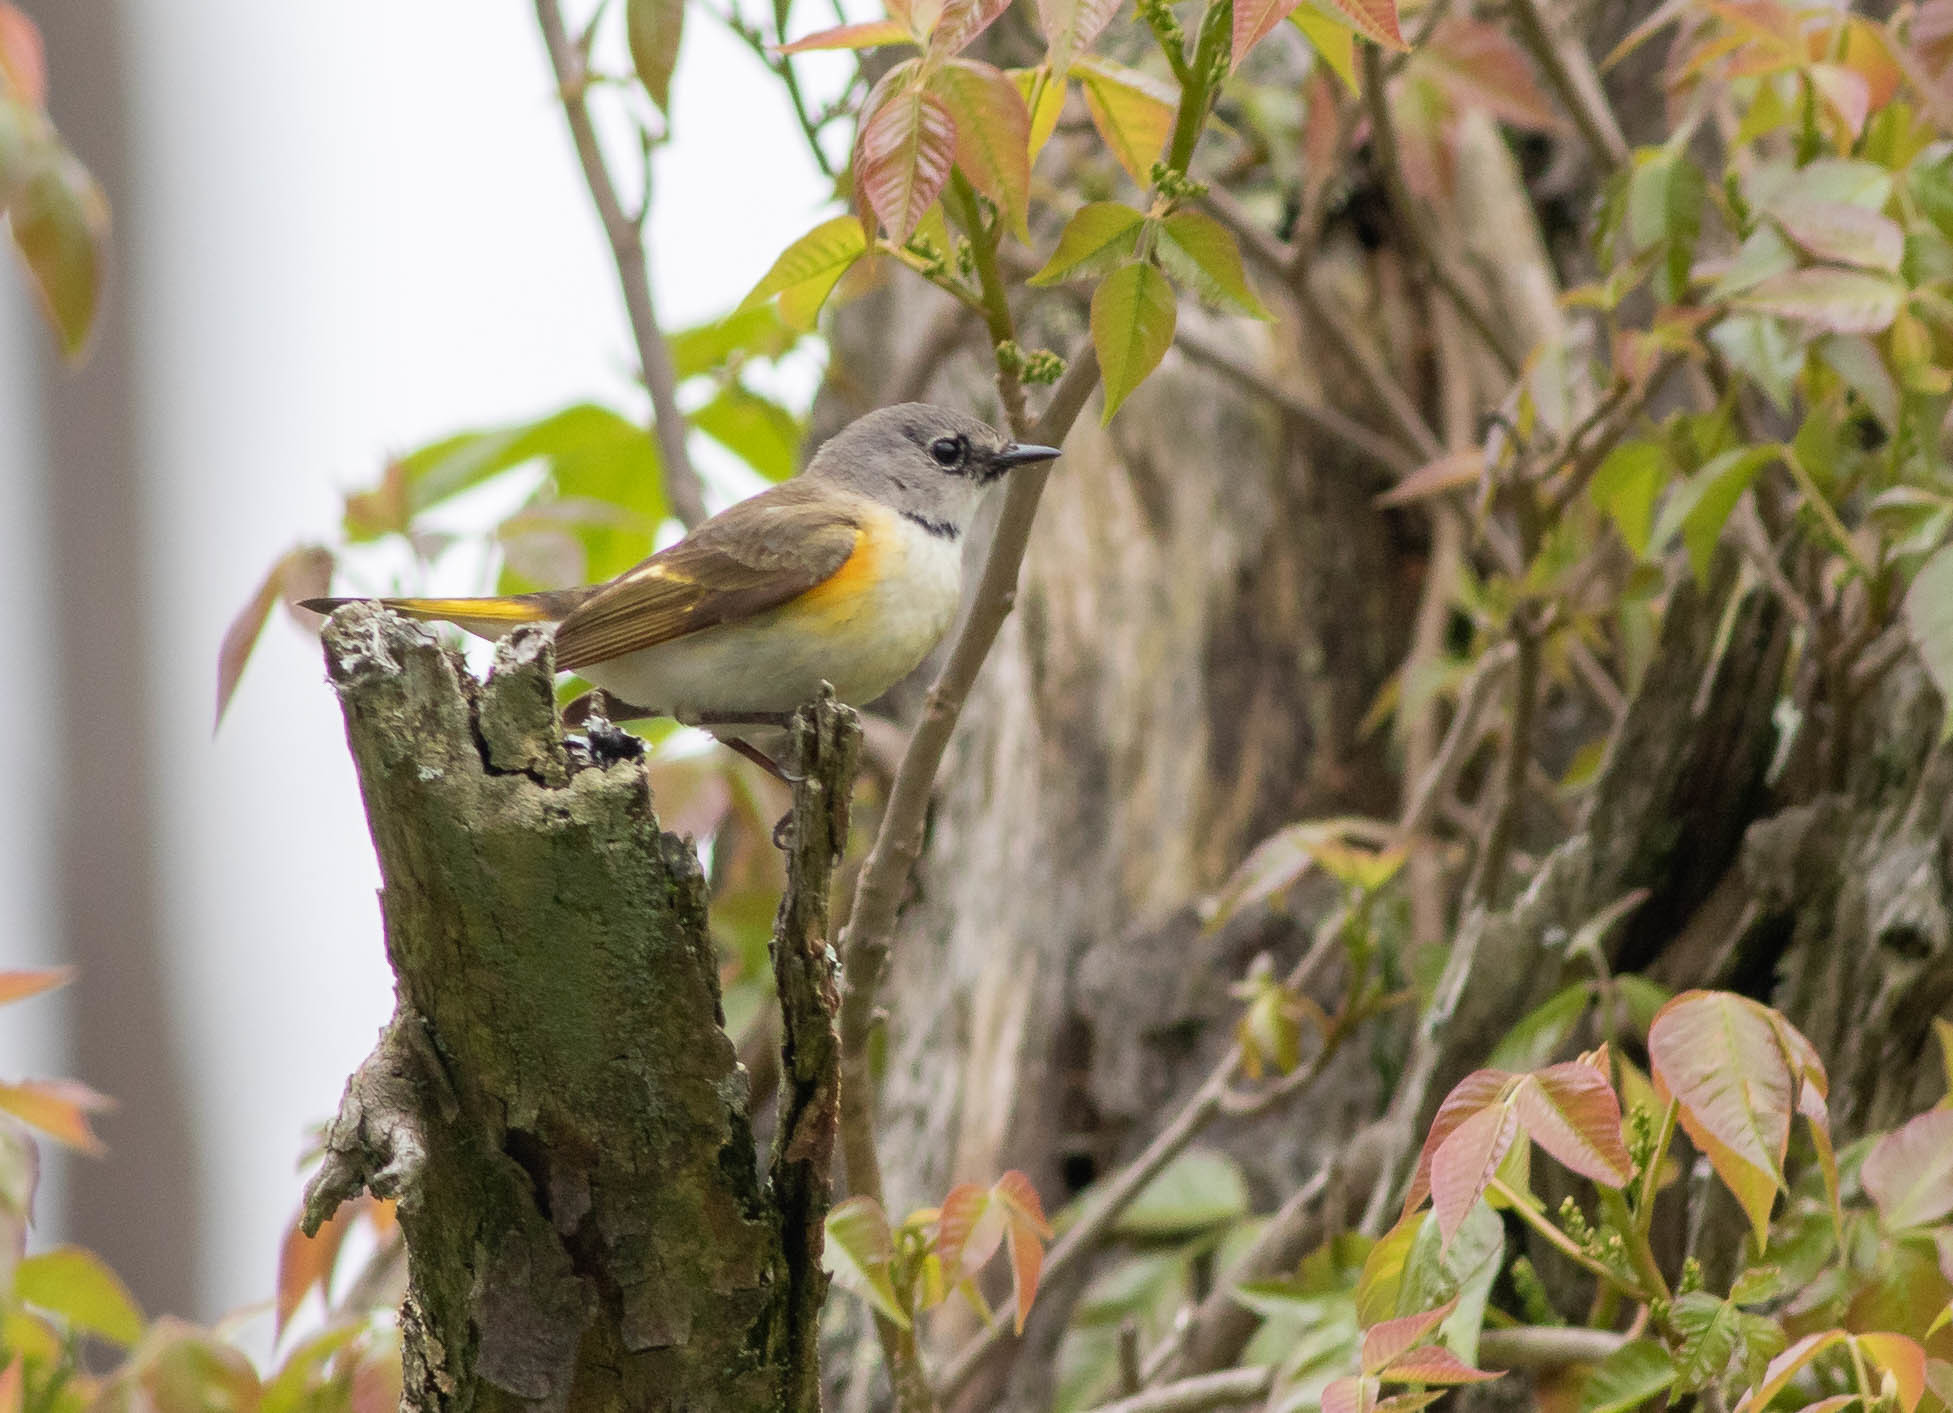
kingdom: Animalia
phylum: Chordata
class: Aves
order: Passeriformes
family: Parulidae
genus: Setophaga
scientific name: Setophaga ruticilla
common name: American redstart
